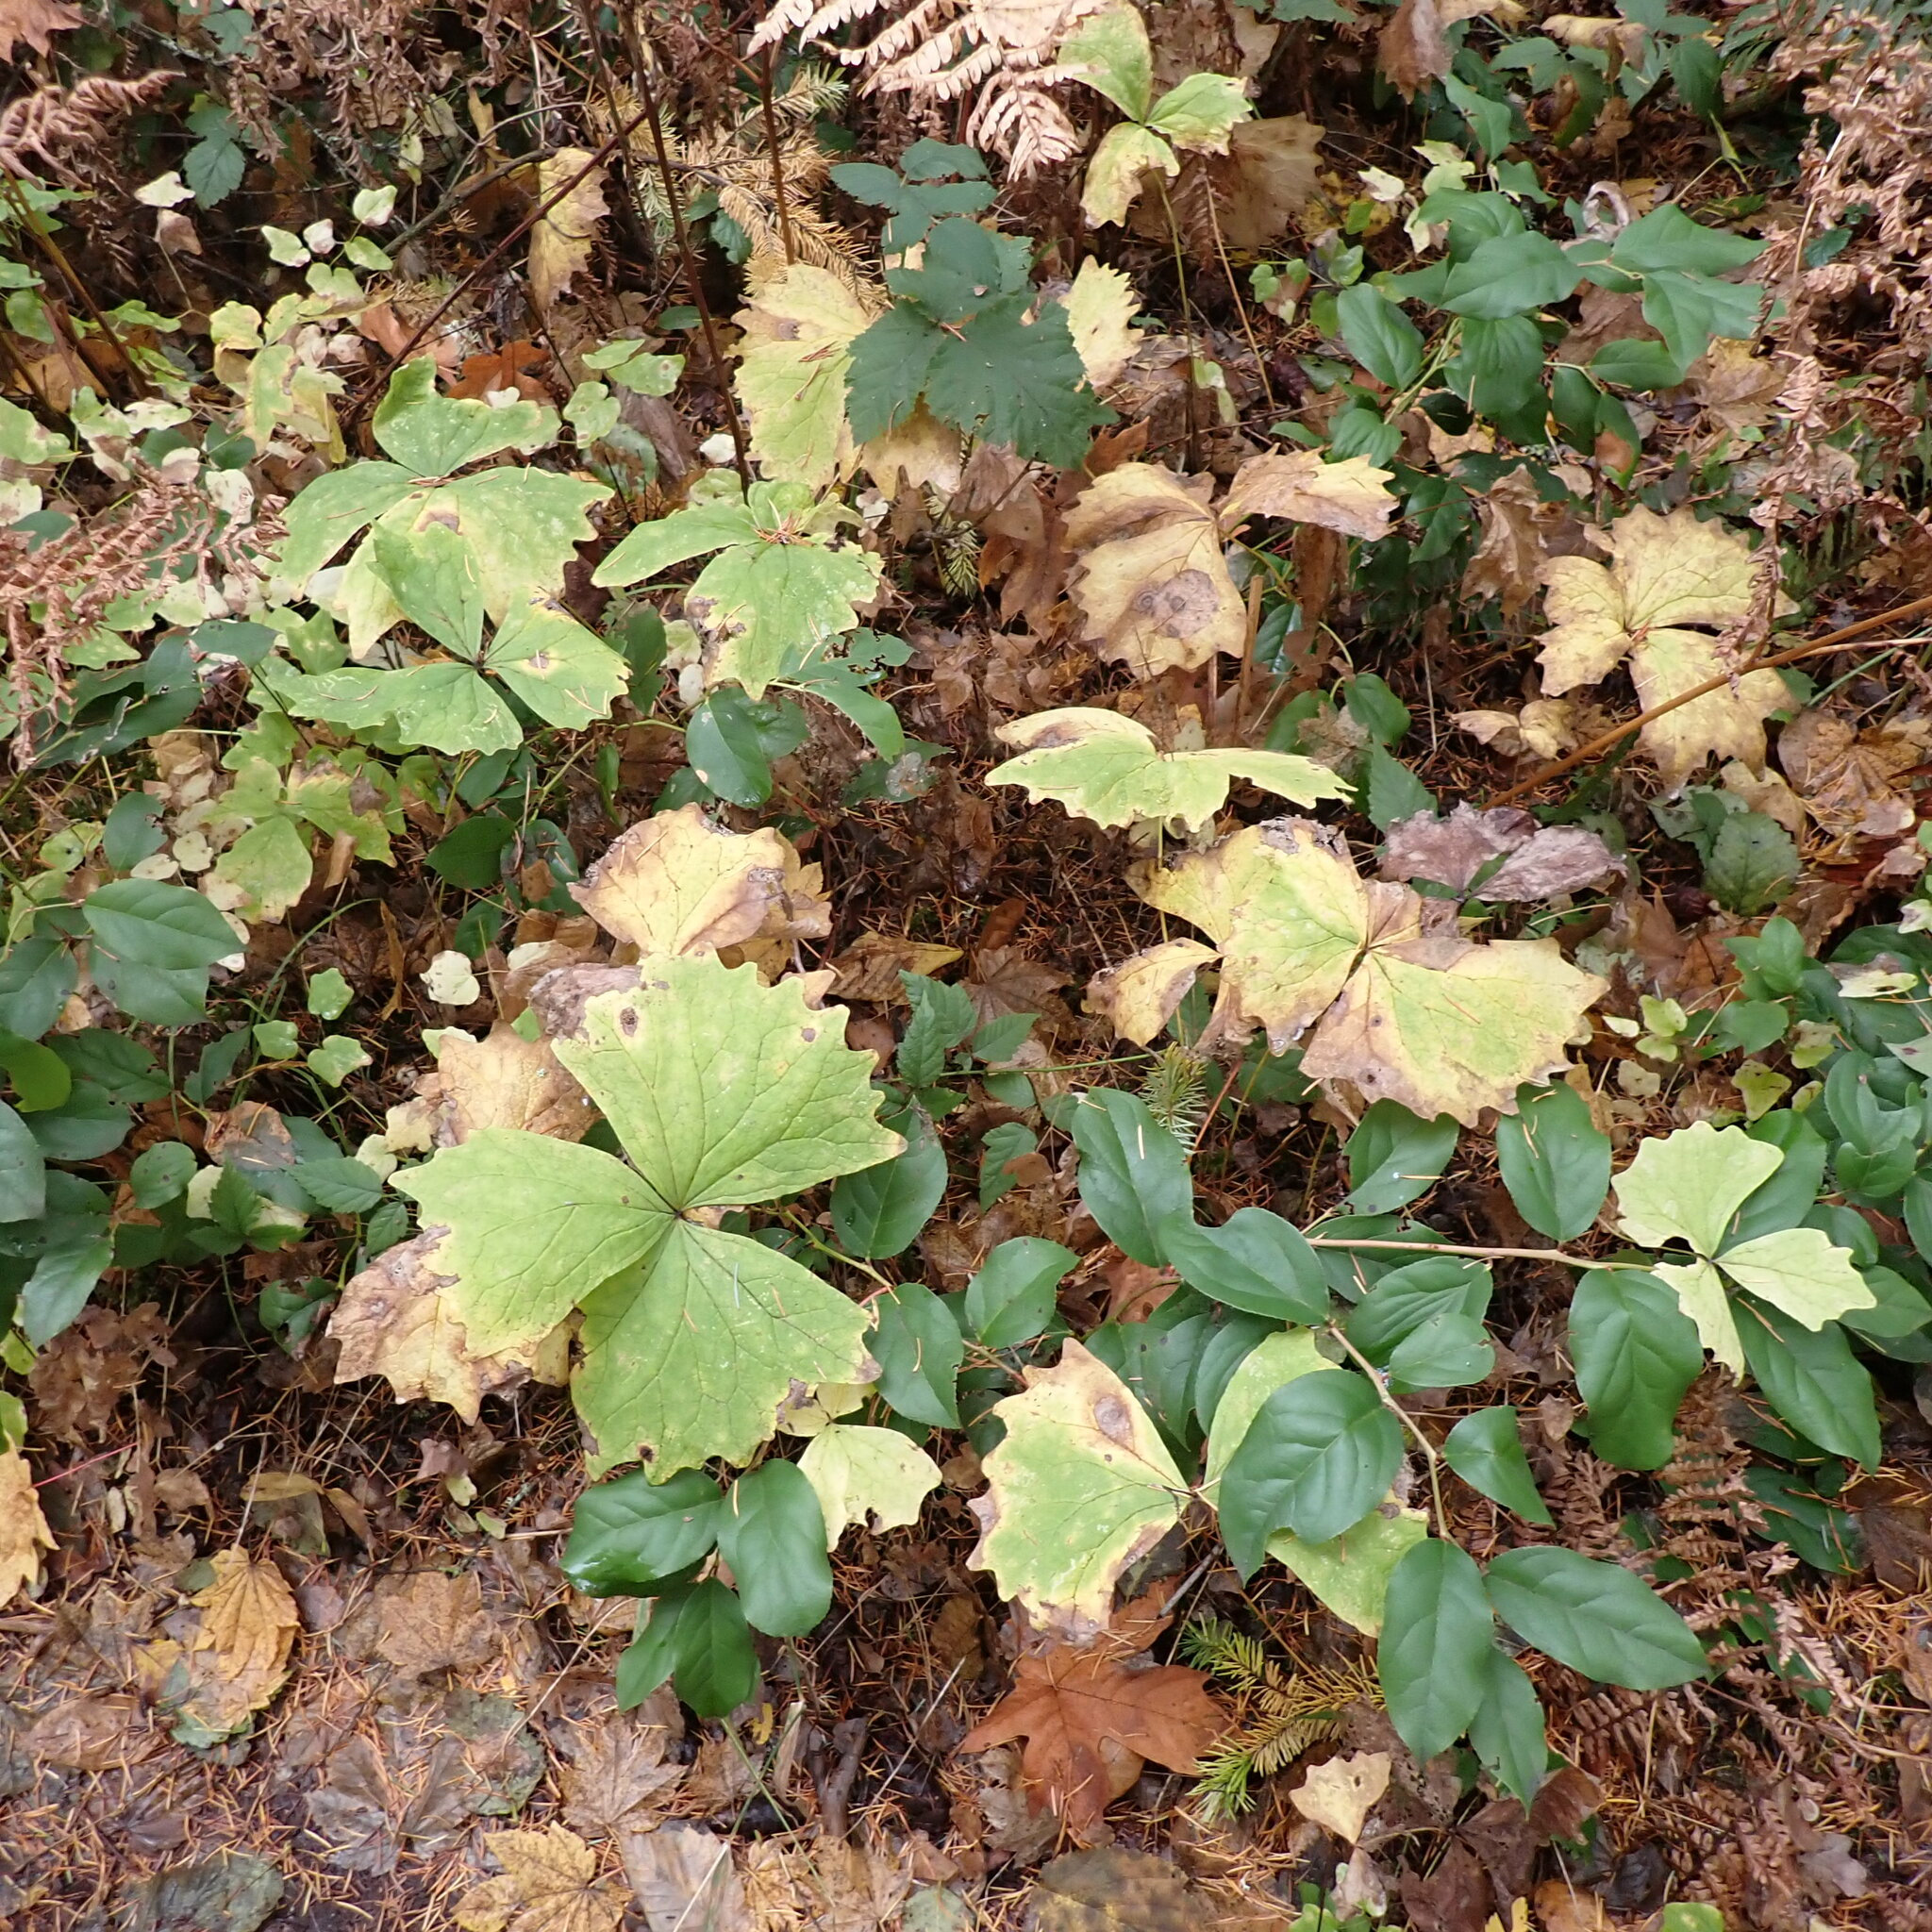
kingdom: Plantae
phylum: Tracheophyta
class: Magnoliopsida
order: Ranunculales
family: Berberidaceae
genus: Achlys
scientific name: Achlys triphylla
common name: Vanilla-leaf
